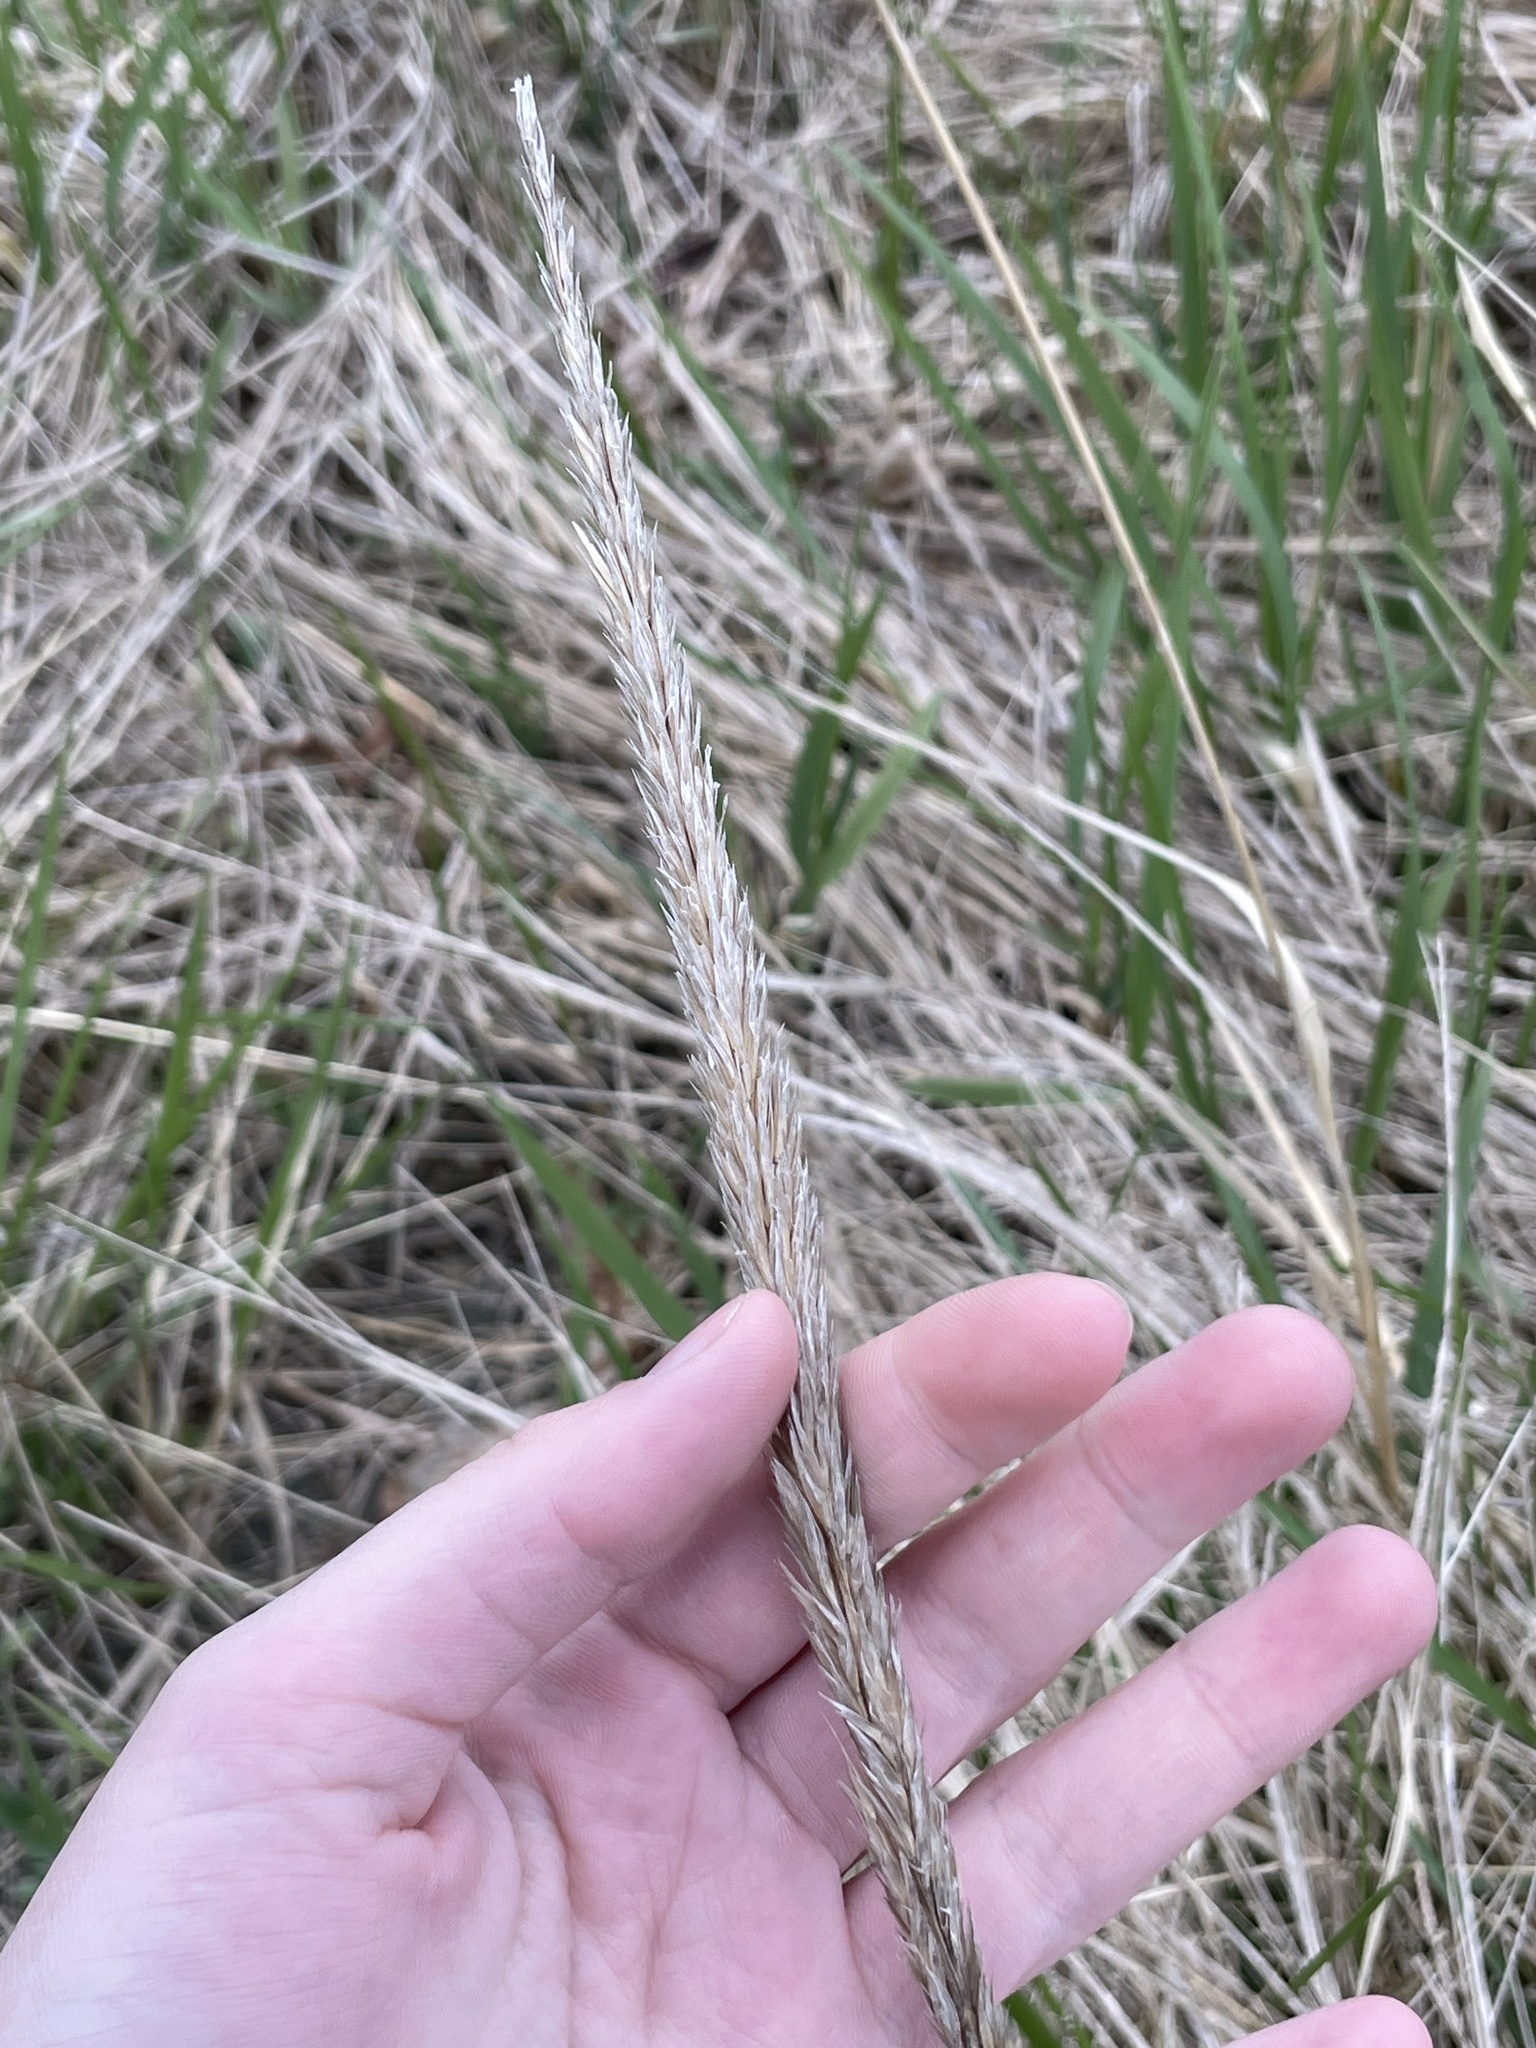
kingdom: Plantae
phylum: Tracheophyta
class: Liliopsida
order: Poales
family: Poaceae
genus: Calamagrostis
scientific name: Calamagrostis breviligulata
